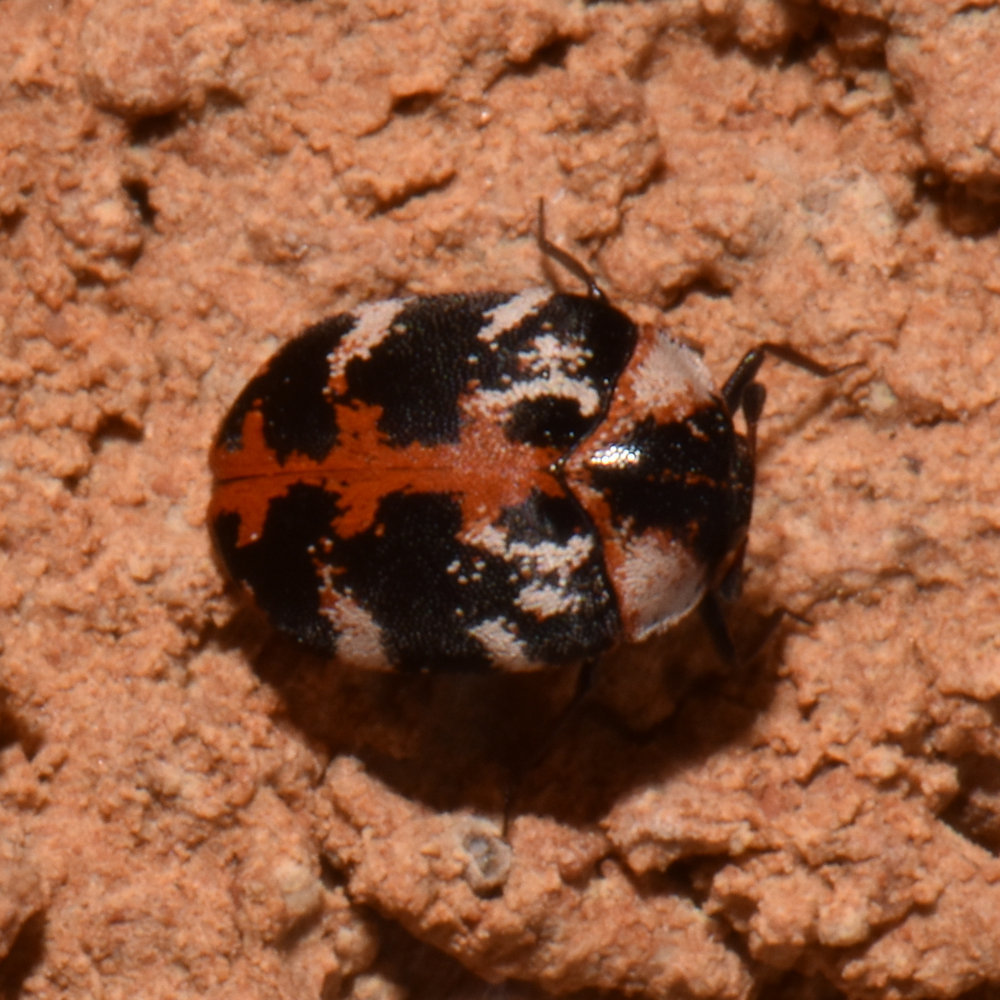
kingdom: Animalia
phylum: Arthropoda
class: Insecta
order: Coleoptera
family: Dermestidae
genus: Anthrenus
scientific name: Anthrenus scrophulariae
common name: Buffalo carpet beetle
